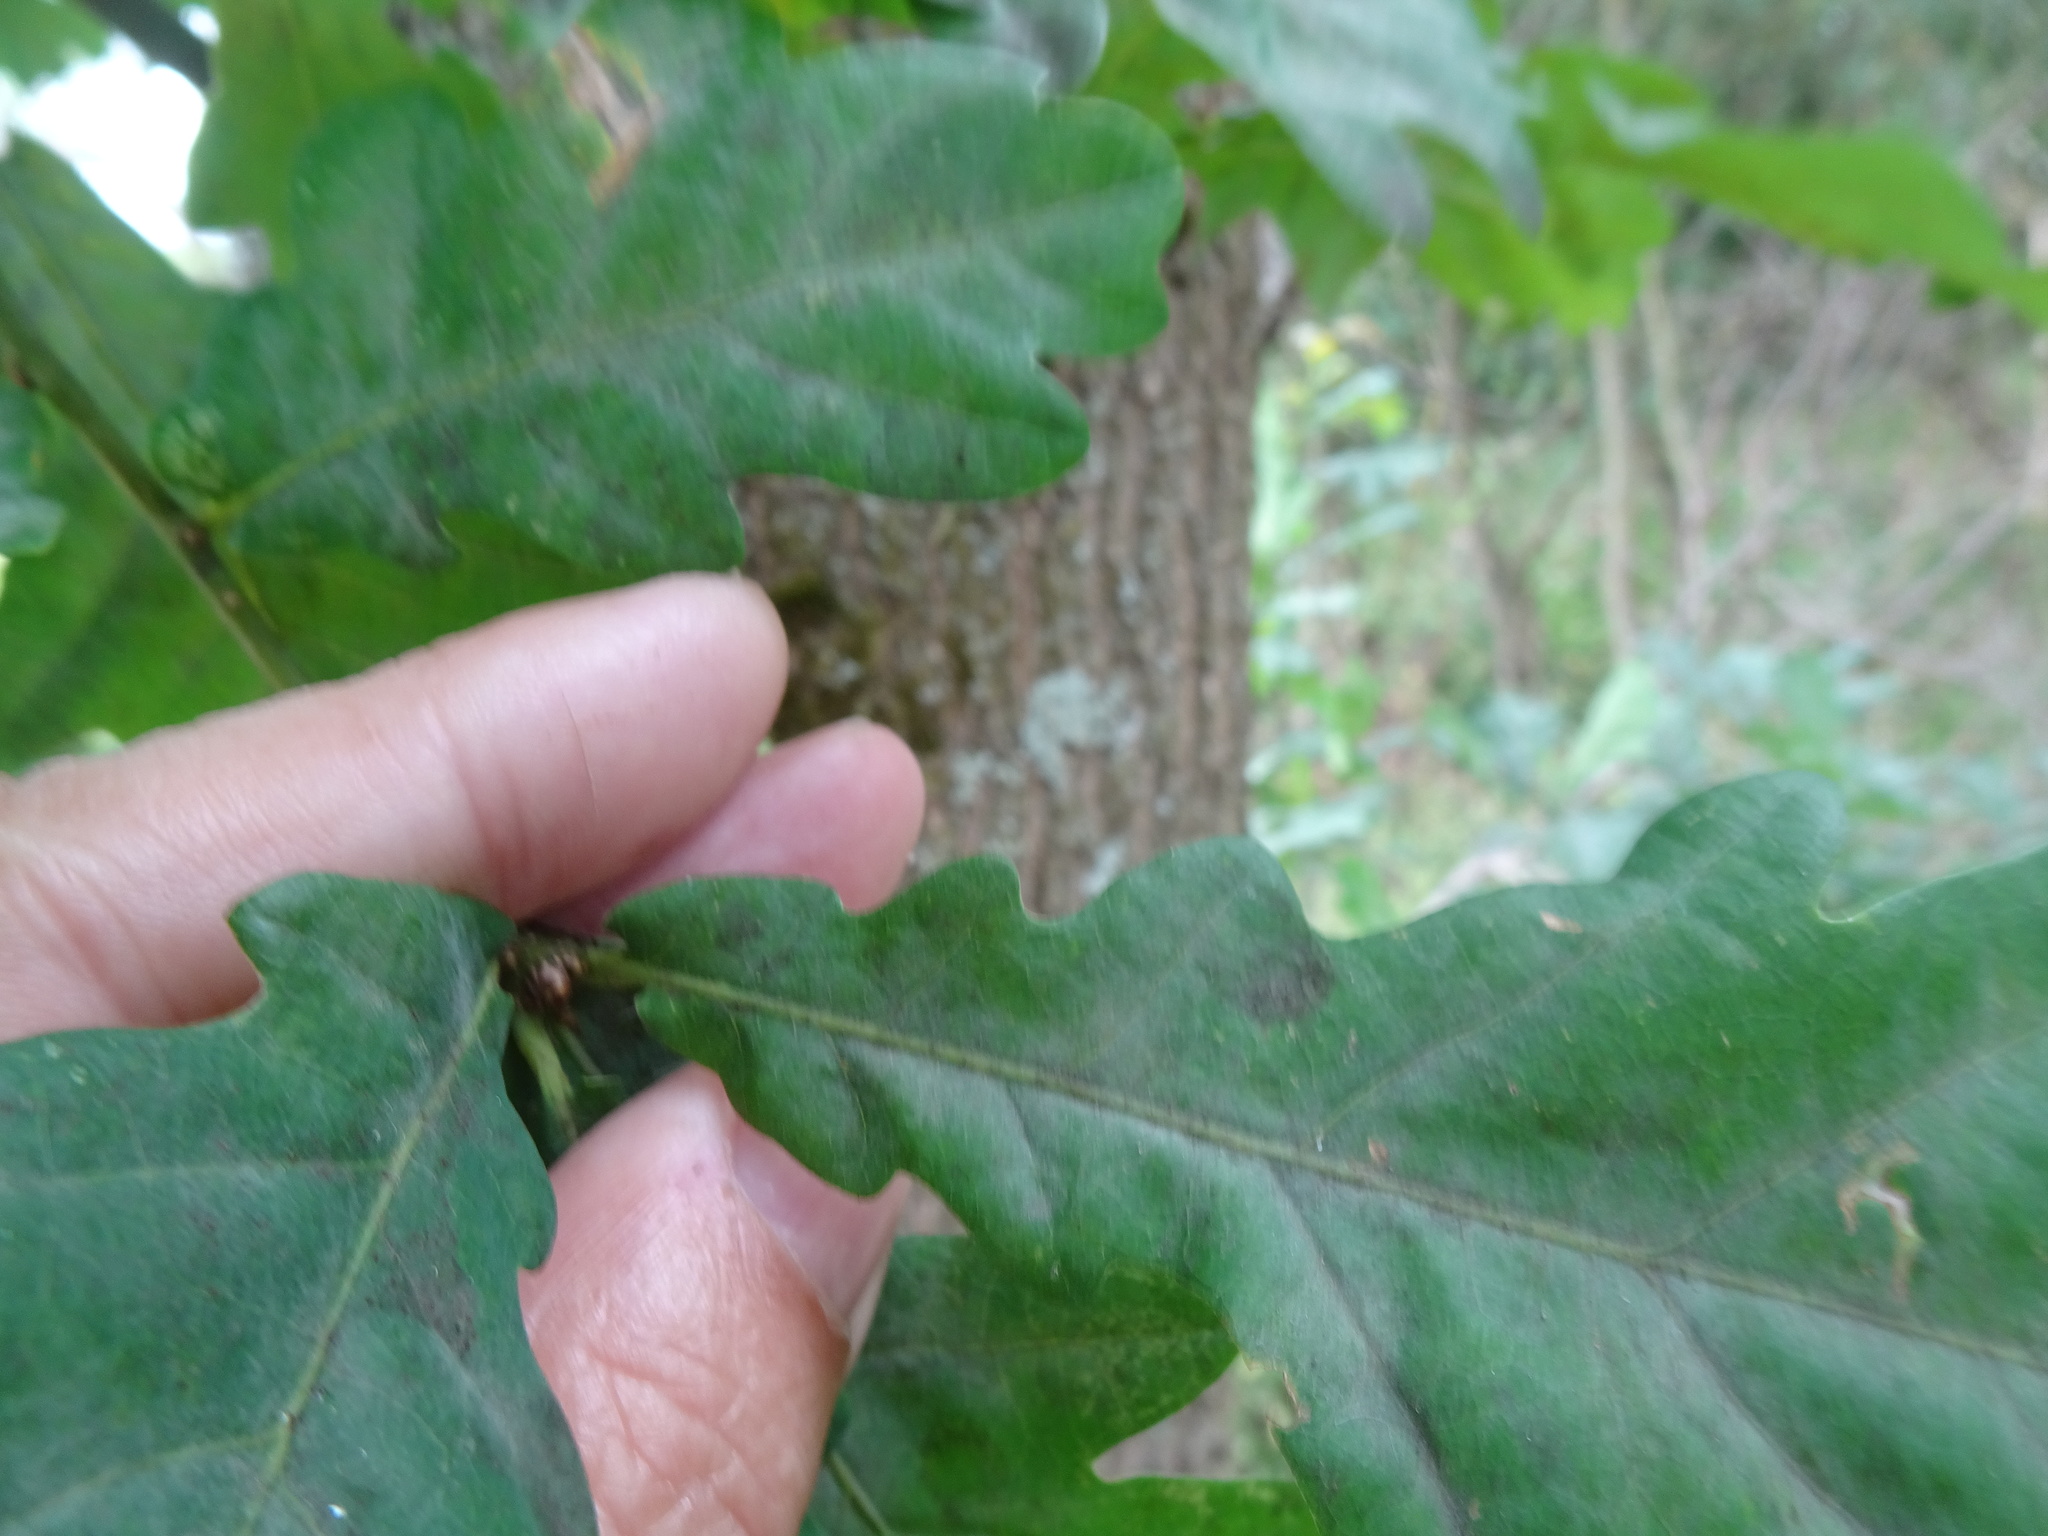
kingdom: Plantae
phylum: Tracheophyta
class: Magnoliopsida
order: Fagales
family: Fagaceae
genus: Quercus
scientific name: Quercus robur
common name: Pedunculate oak
